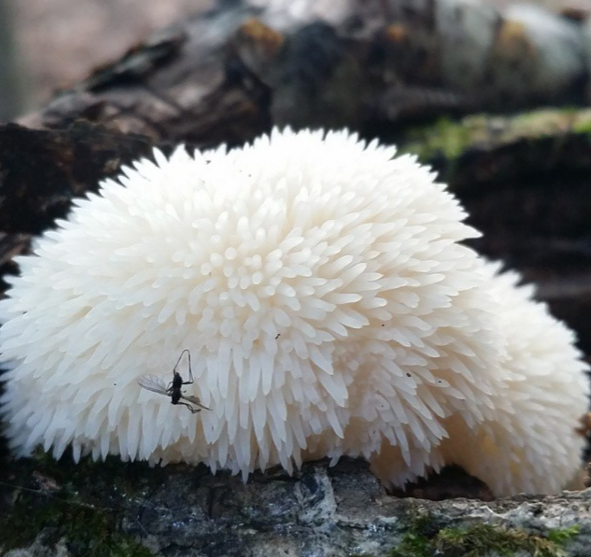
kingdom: Fungi
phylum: Basidiomycota
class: Agaricomycetes
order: Russulales
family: Hericiaceae
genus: Hericium
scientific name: Hericium erinaceus
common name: Bearded tooth
